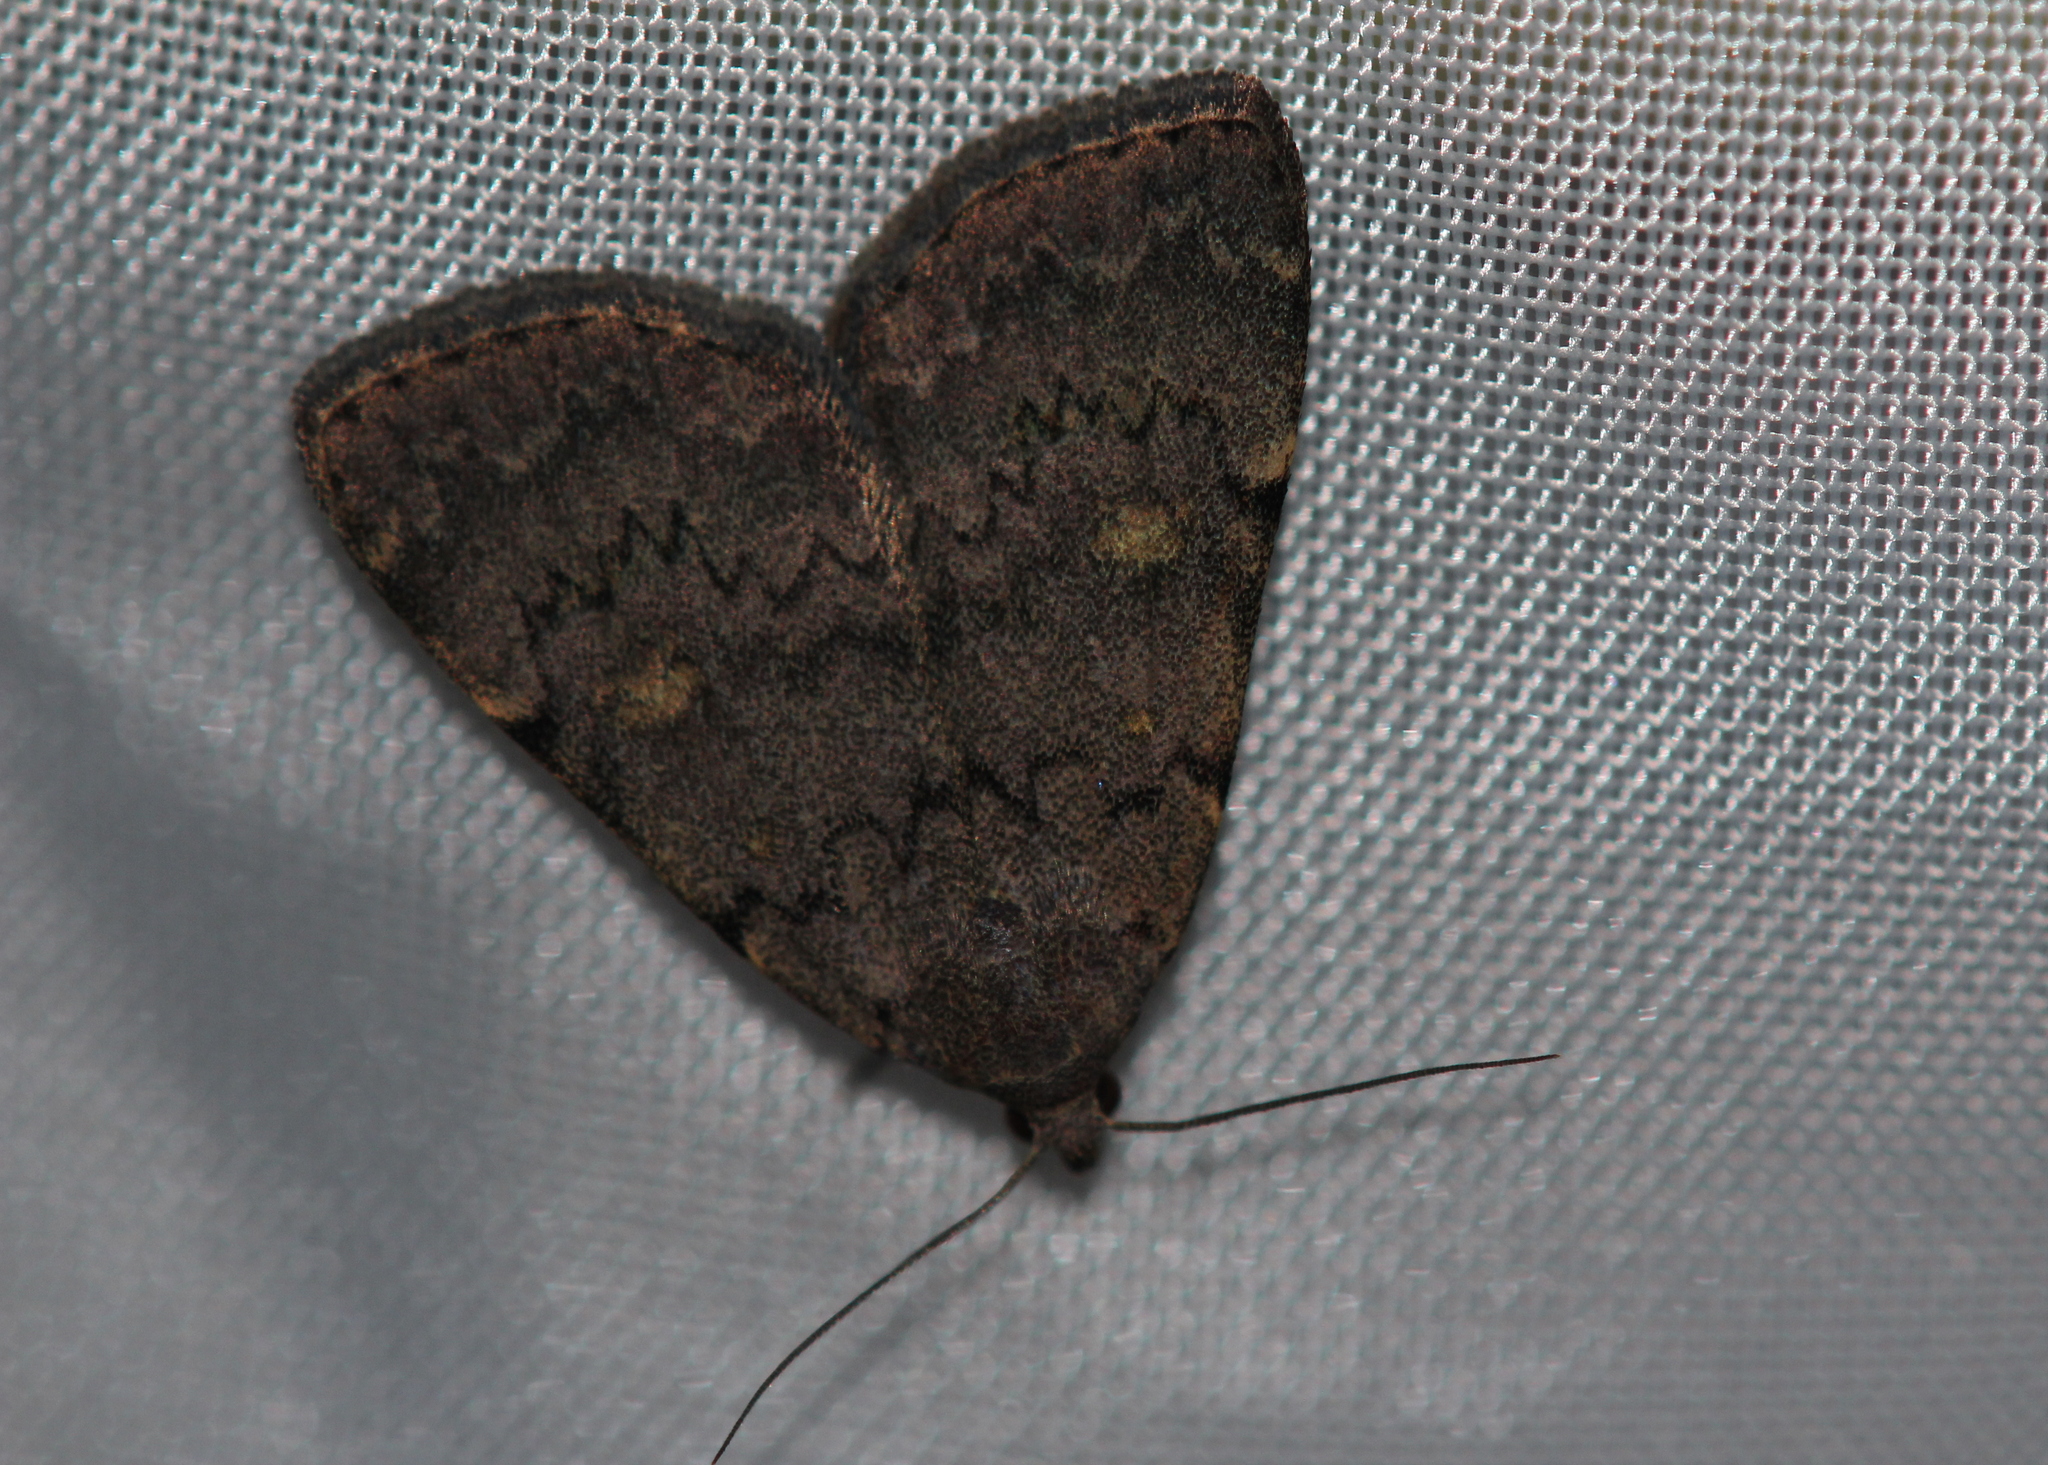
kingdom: Animalia
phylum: Arthropoda
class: Insecta
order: Lepidoptera
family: Erebidae
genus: Idia
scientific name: Idia aemula
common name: Common idia moth
